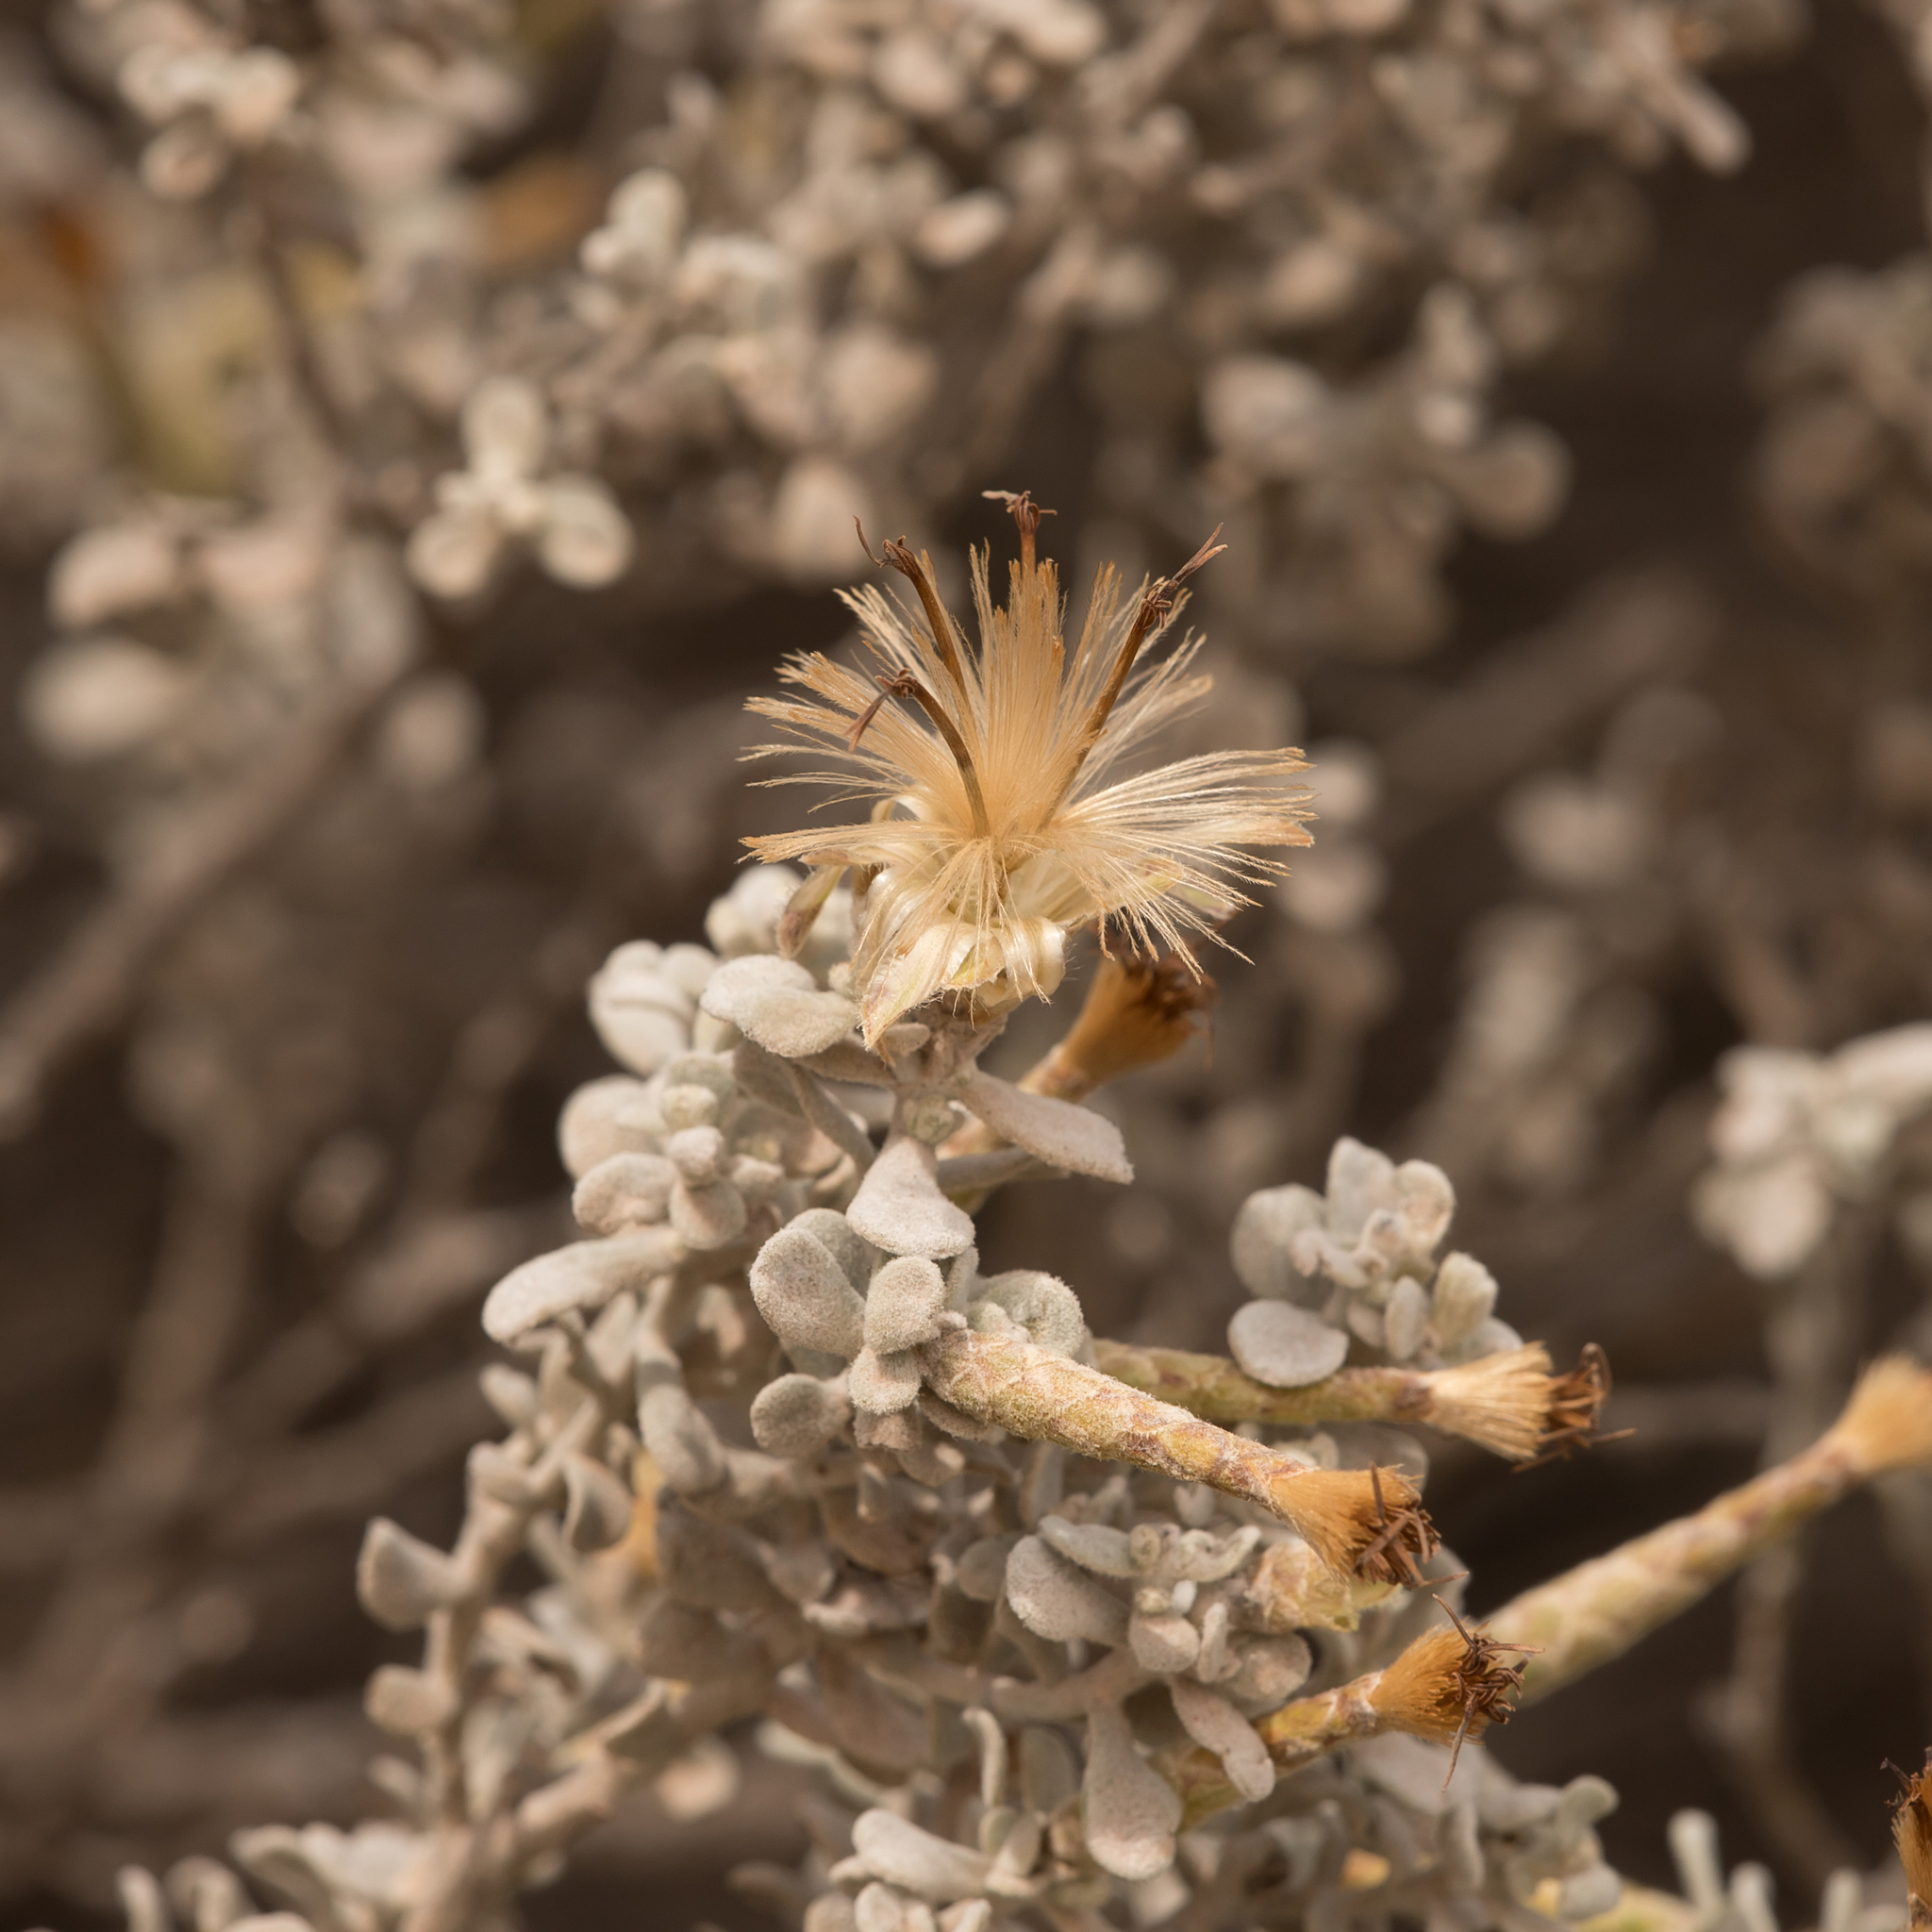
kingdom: Plantae
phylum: Tracheophyta
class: Magnoliopsida
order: Asterales
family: Asteraceae
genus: Cratystylis
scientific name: Cratystylis conocephala
